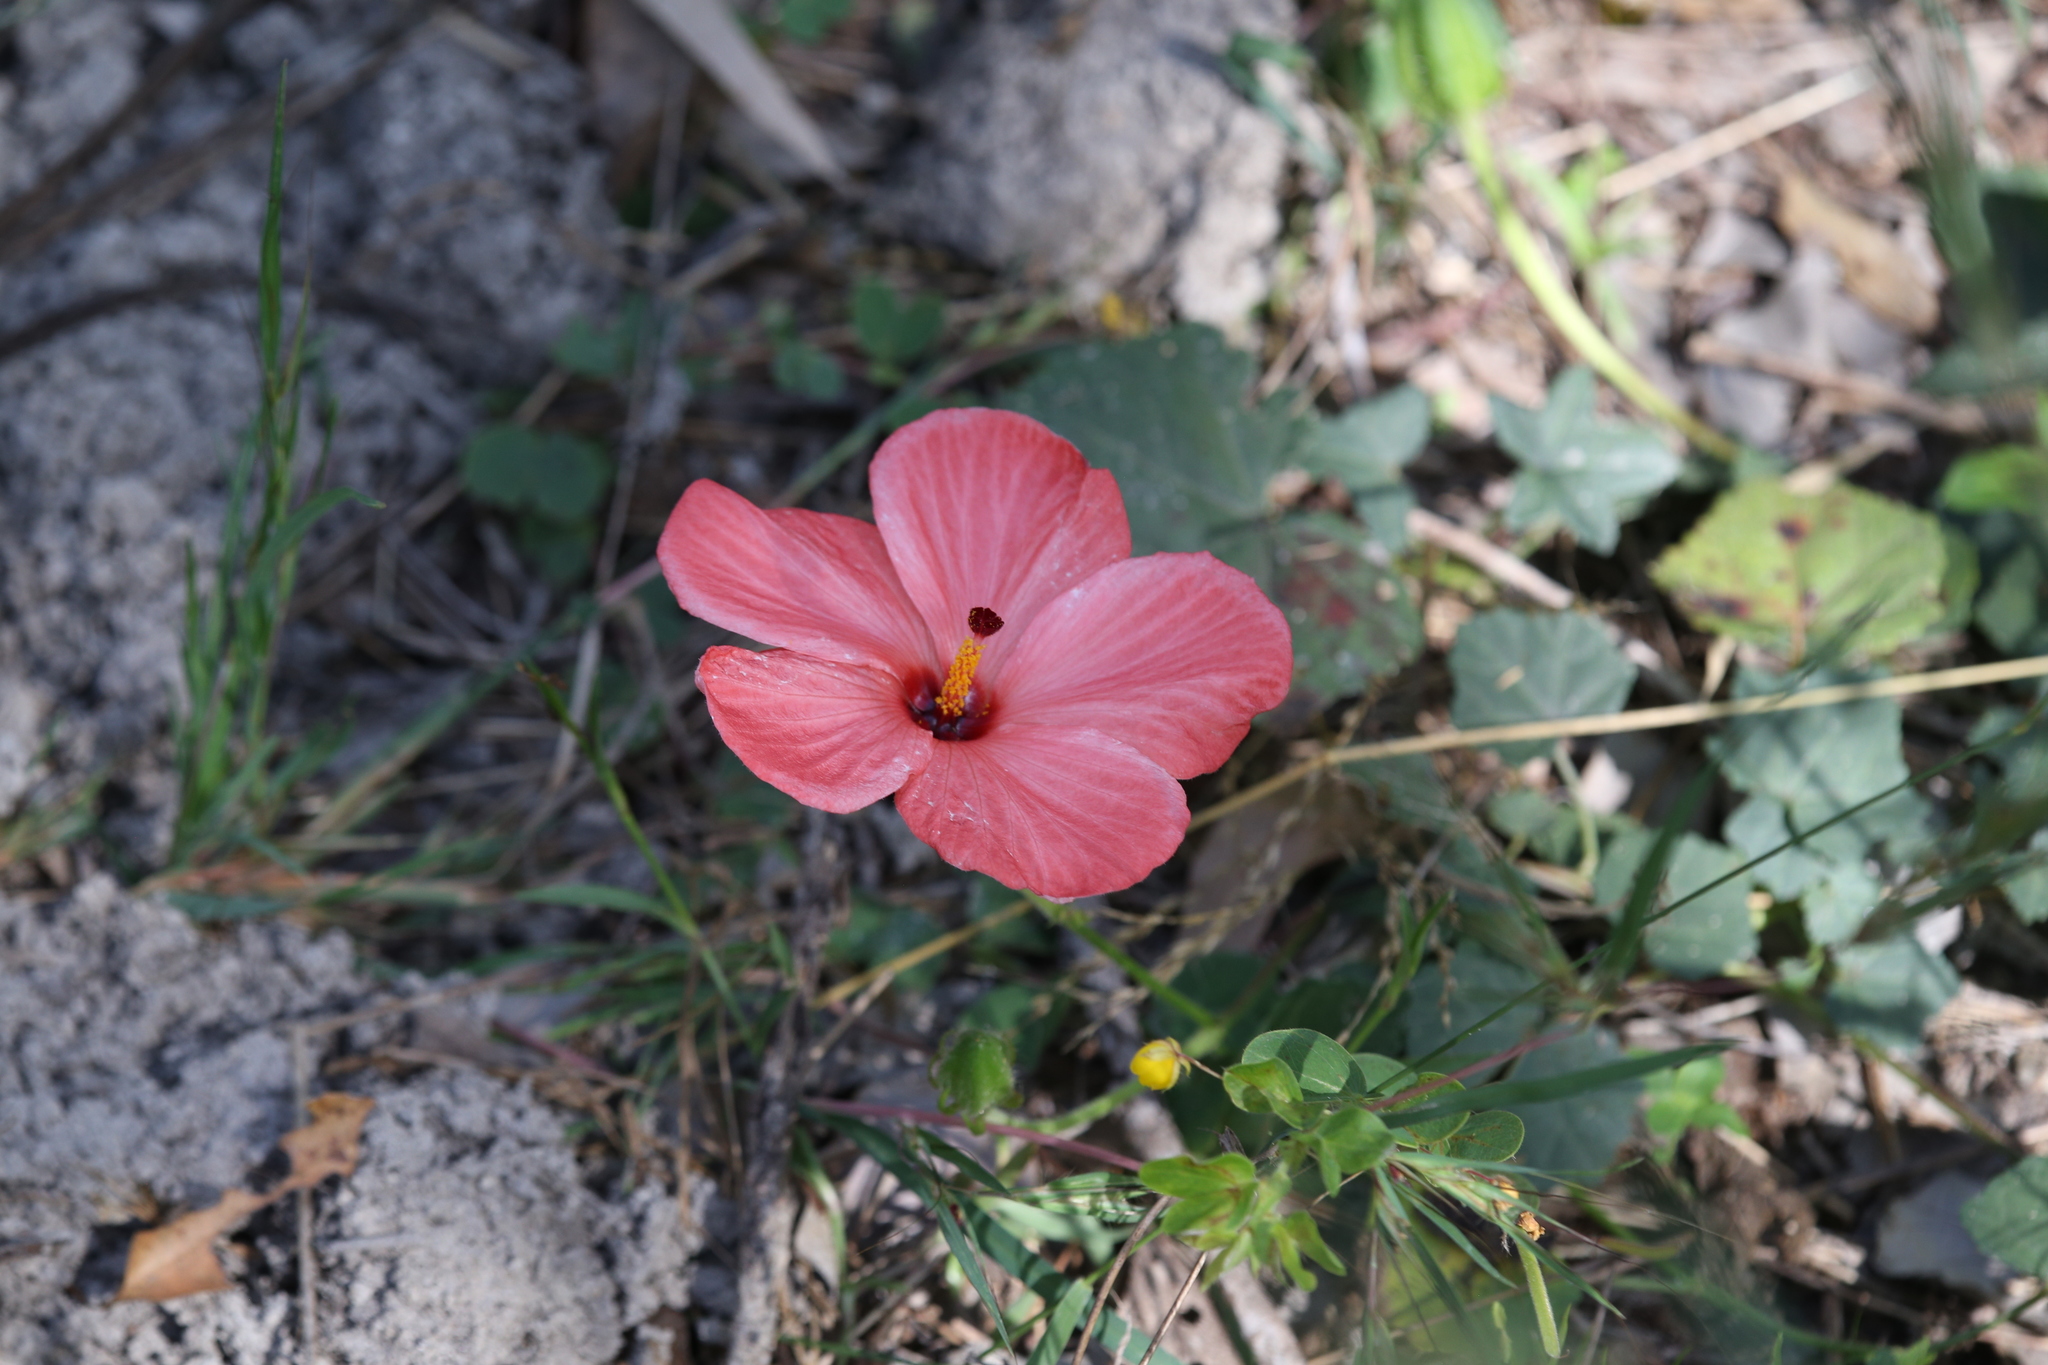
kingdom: Plantae
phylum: Tracheophyta
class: Magnoliopsida
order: Malvales
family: Malvaceae
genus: Abelmoschus
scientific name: Abelmoschus sagittifolius
